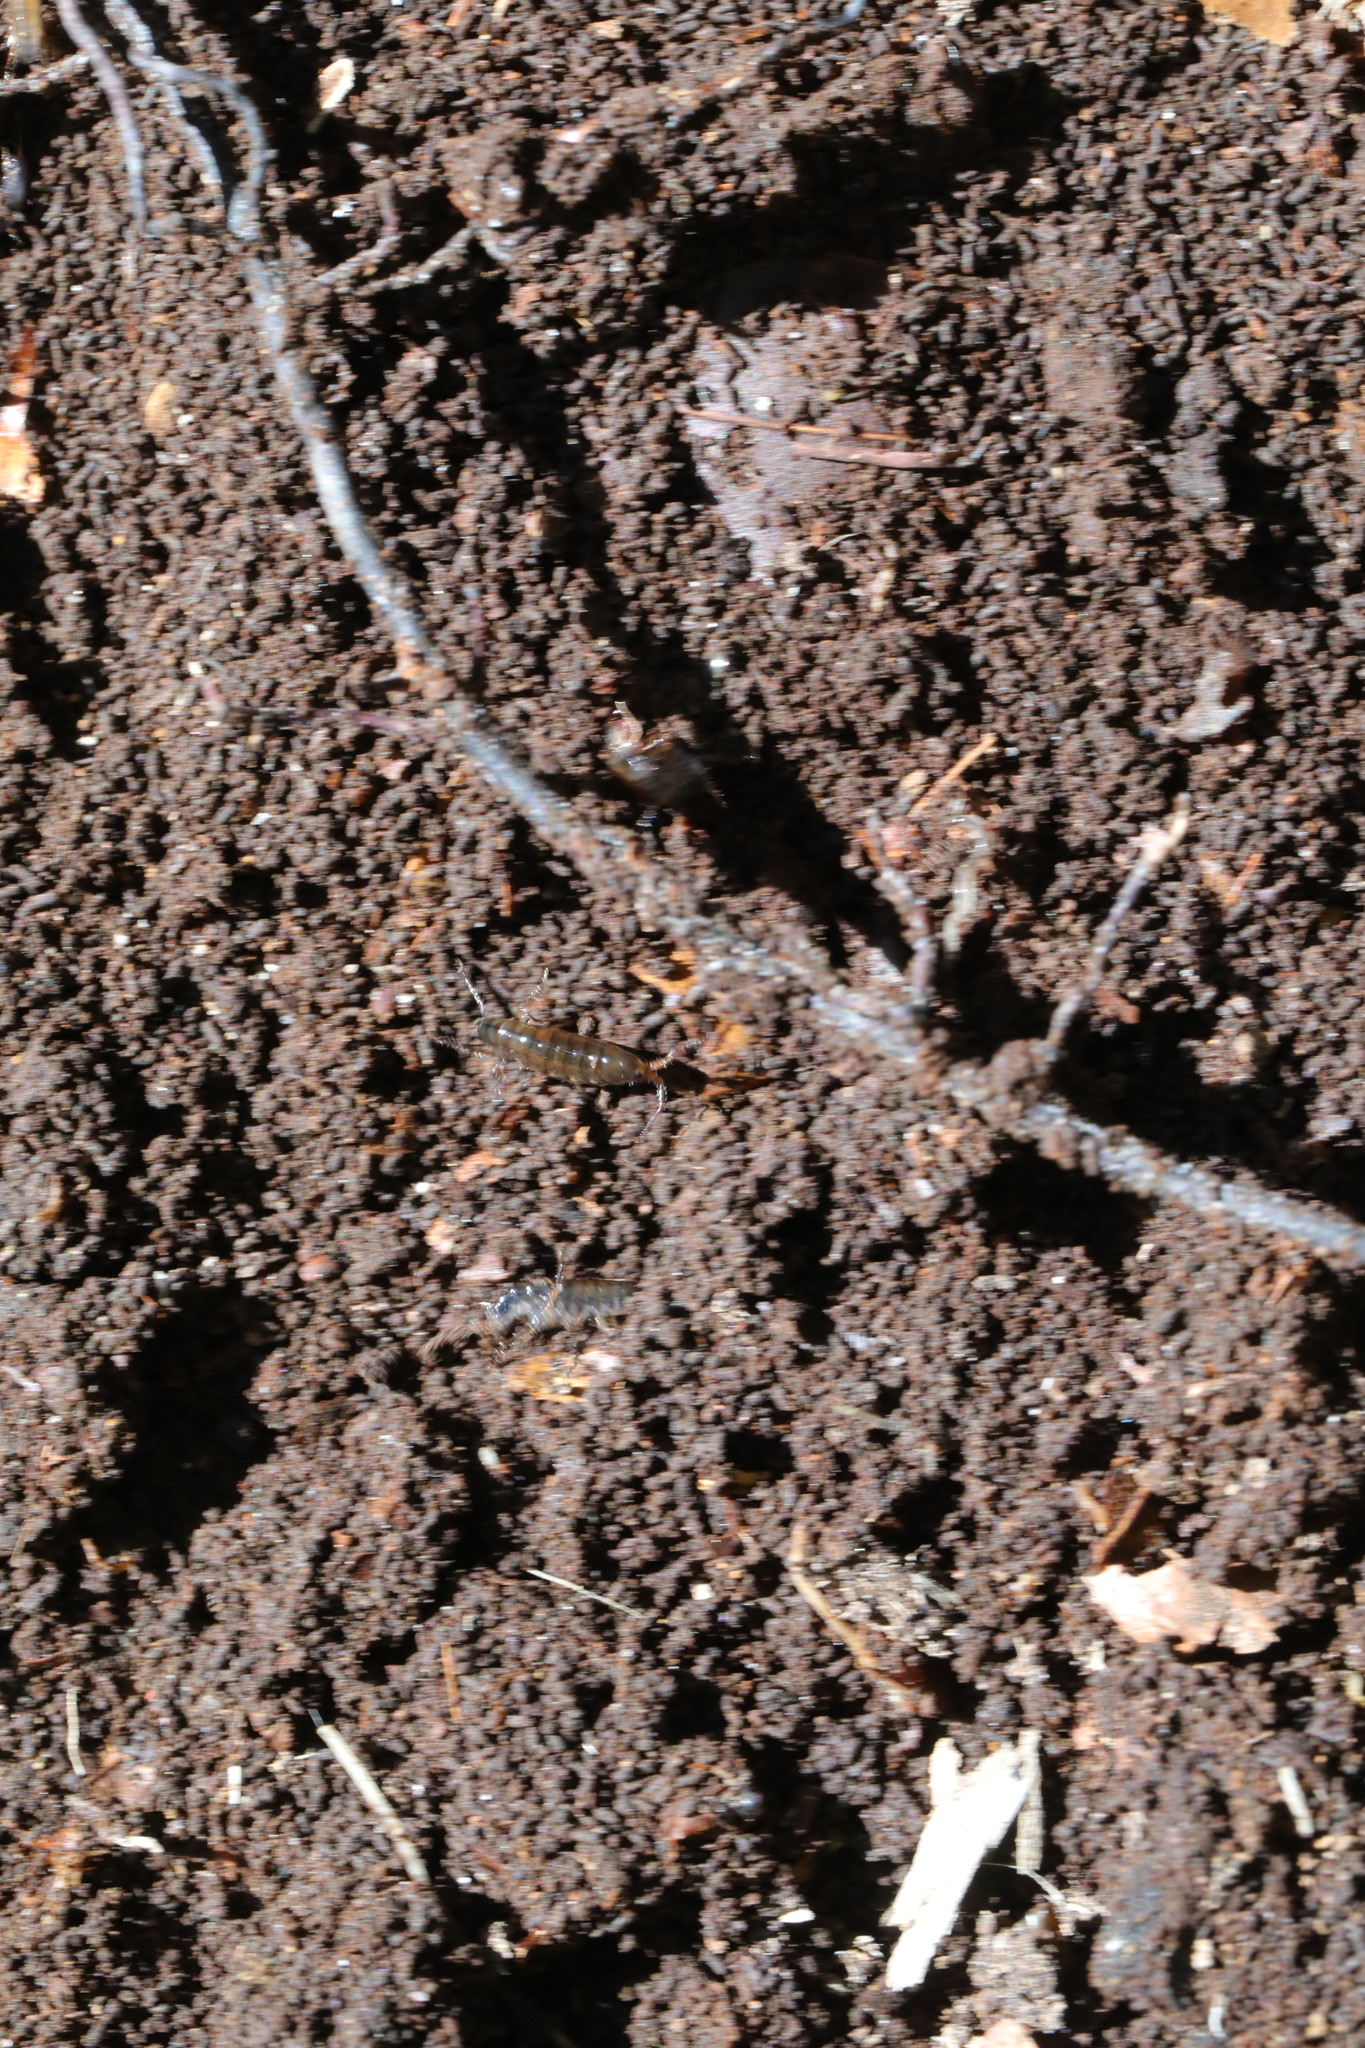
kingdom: Animalia
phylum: Arthropoda
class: Malacostraca
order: Amphipoda
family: Arcitalitridae
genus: Arcitalitrus
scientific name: Arcitalitrus dorrieni
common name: Landhopper
